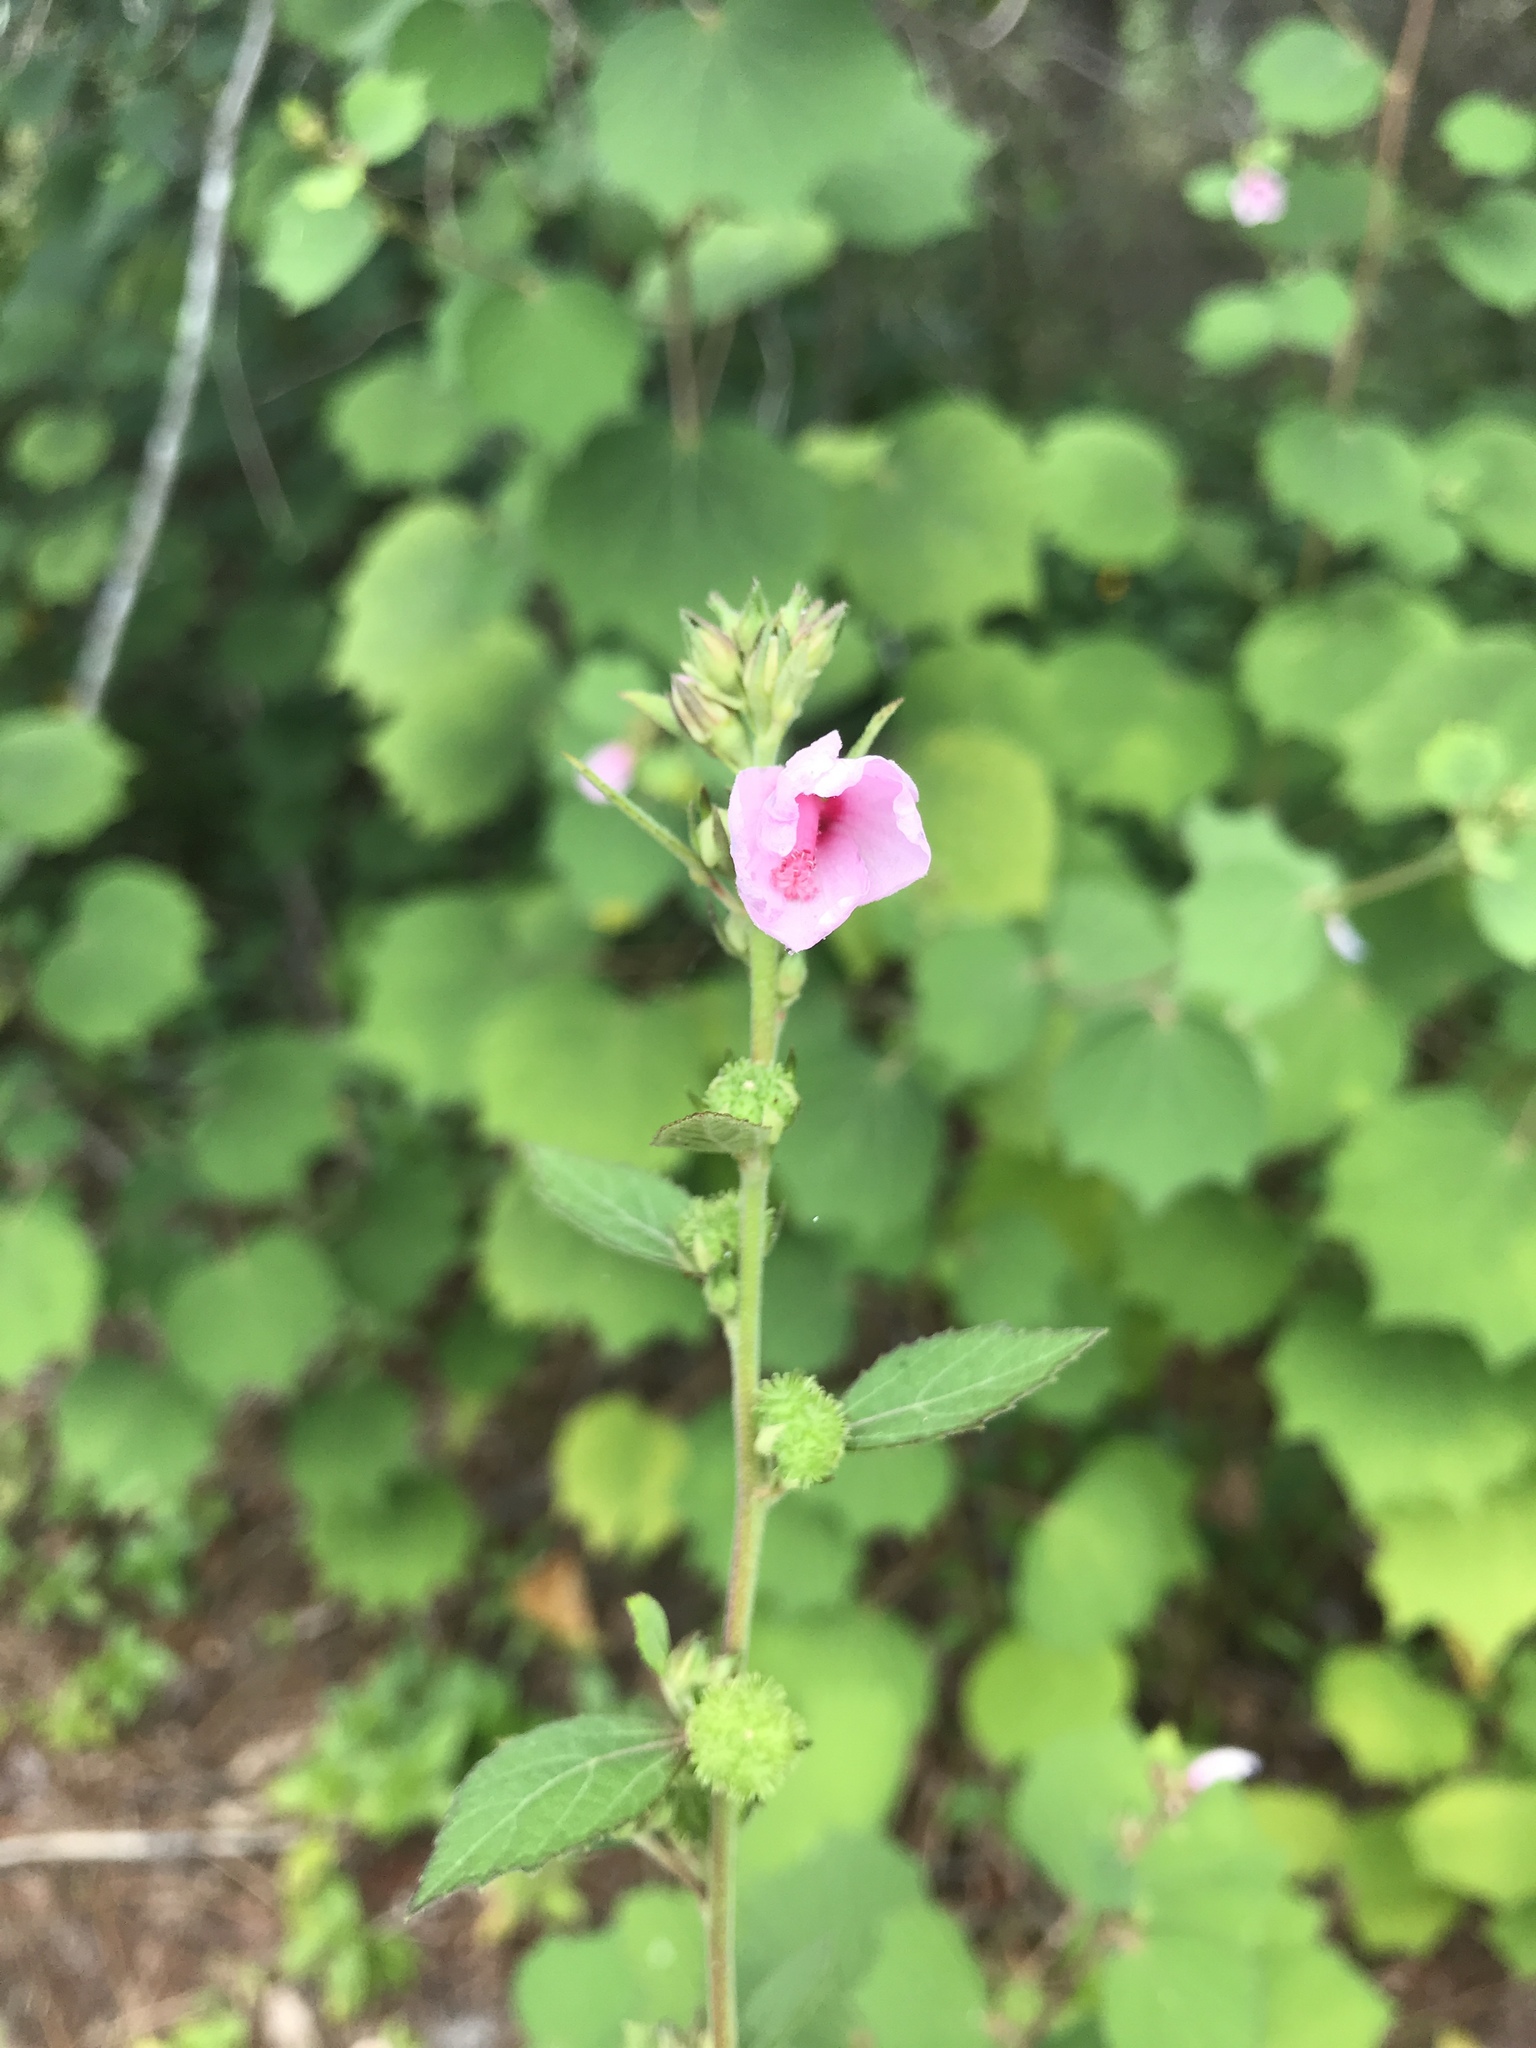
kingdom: Plantae
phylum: Tracheophyta
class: Magnoliopsida
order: Malvales
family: Malvaceae
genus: Urena
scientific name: Urena lobata
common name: Caesarweed
